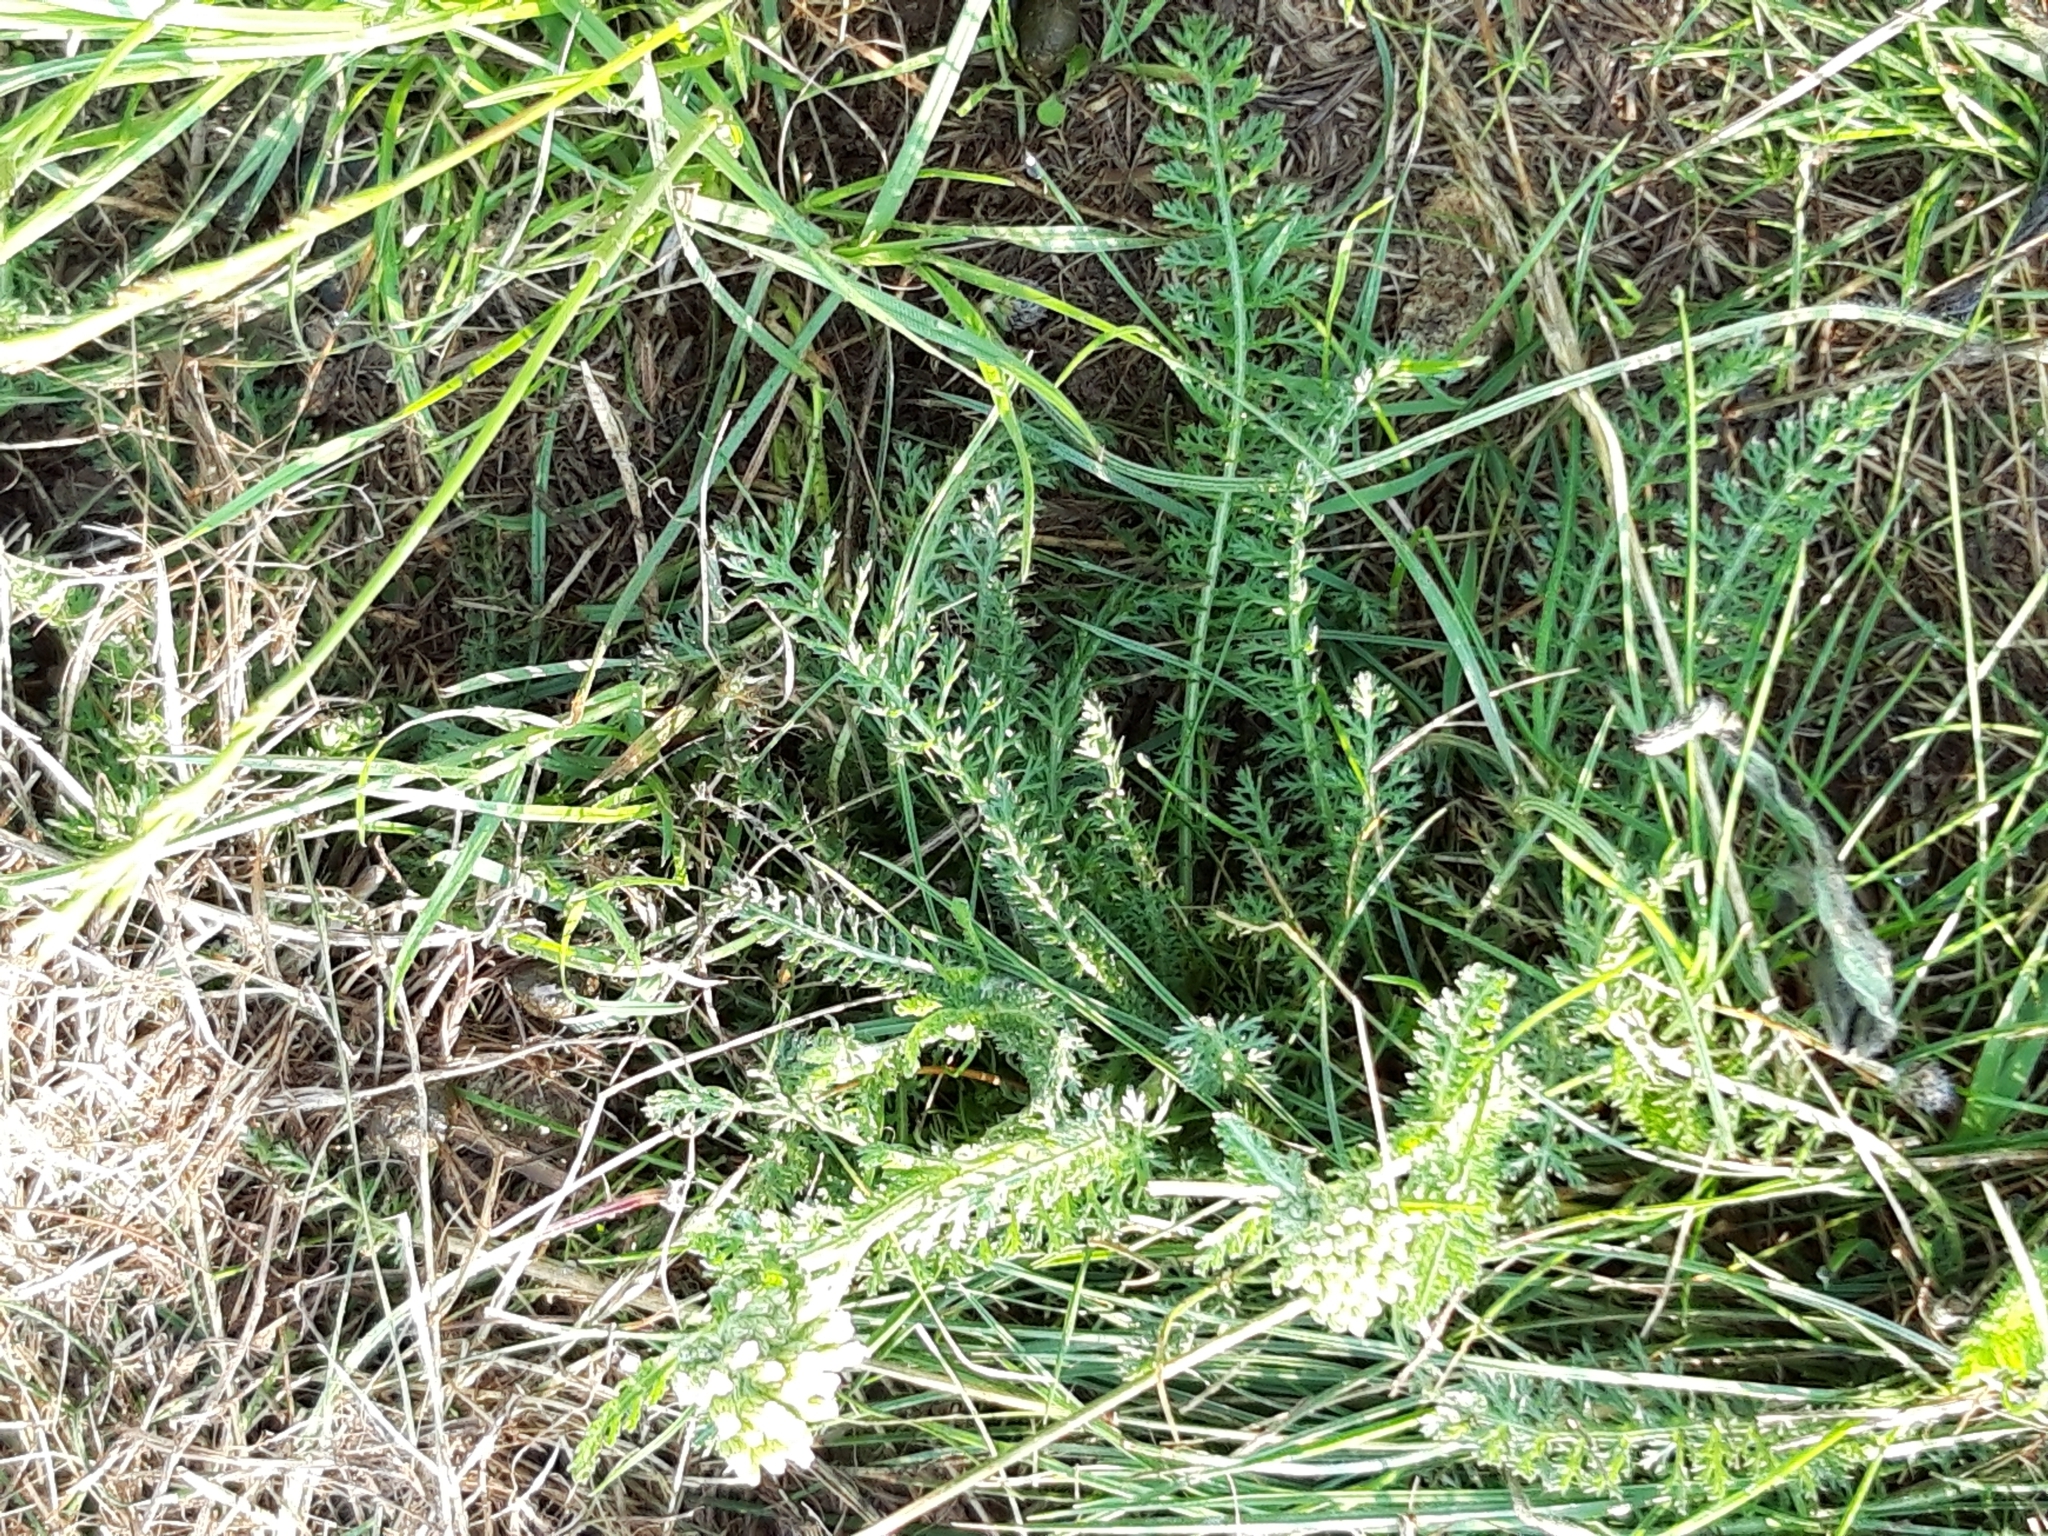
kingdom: Plantae
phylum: Tracheophyta
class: Magnoliopsida
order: Asterales
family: Asteraceae
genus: Achillea
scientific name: Achillea millefolium
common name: Yarrow
